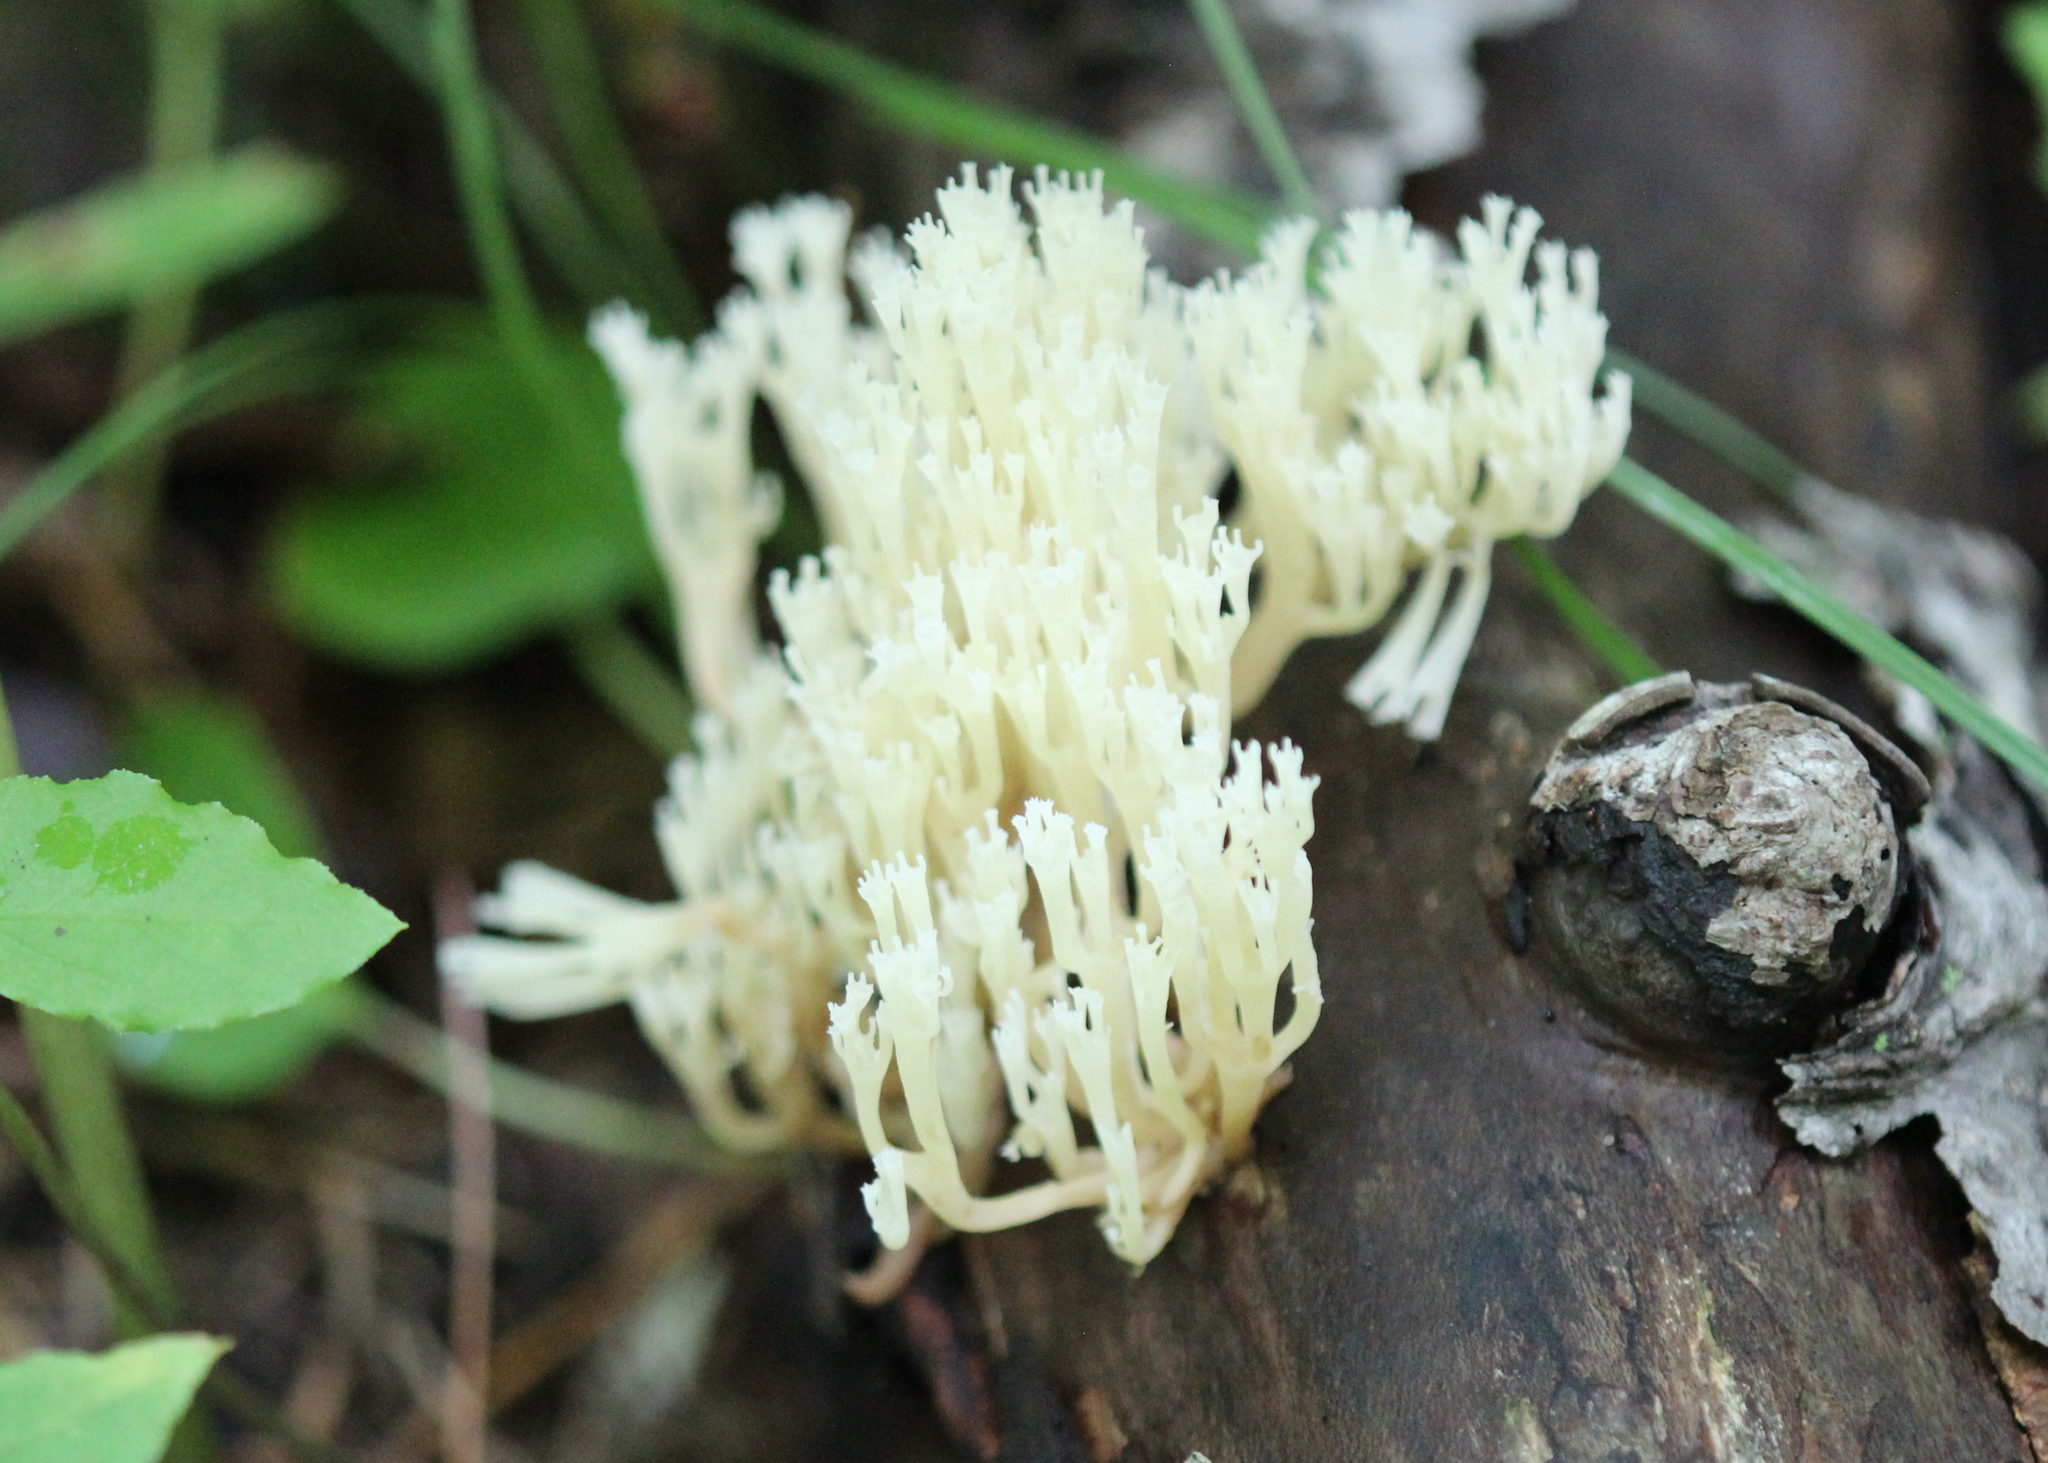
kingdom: Fungi
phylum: Basidiomycota
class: Agaricomycetes
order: Russulales
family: Auriscalpiaceae
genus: Artomyces
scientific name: Artomyces pyxidatus
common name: Crown-tipped coral fungus
